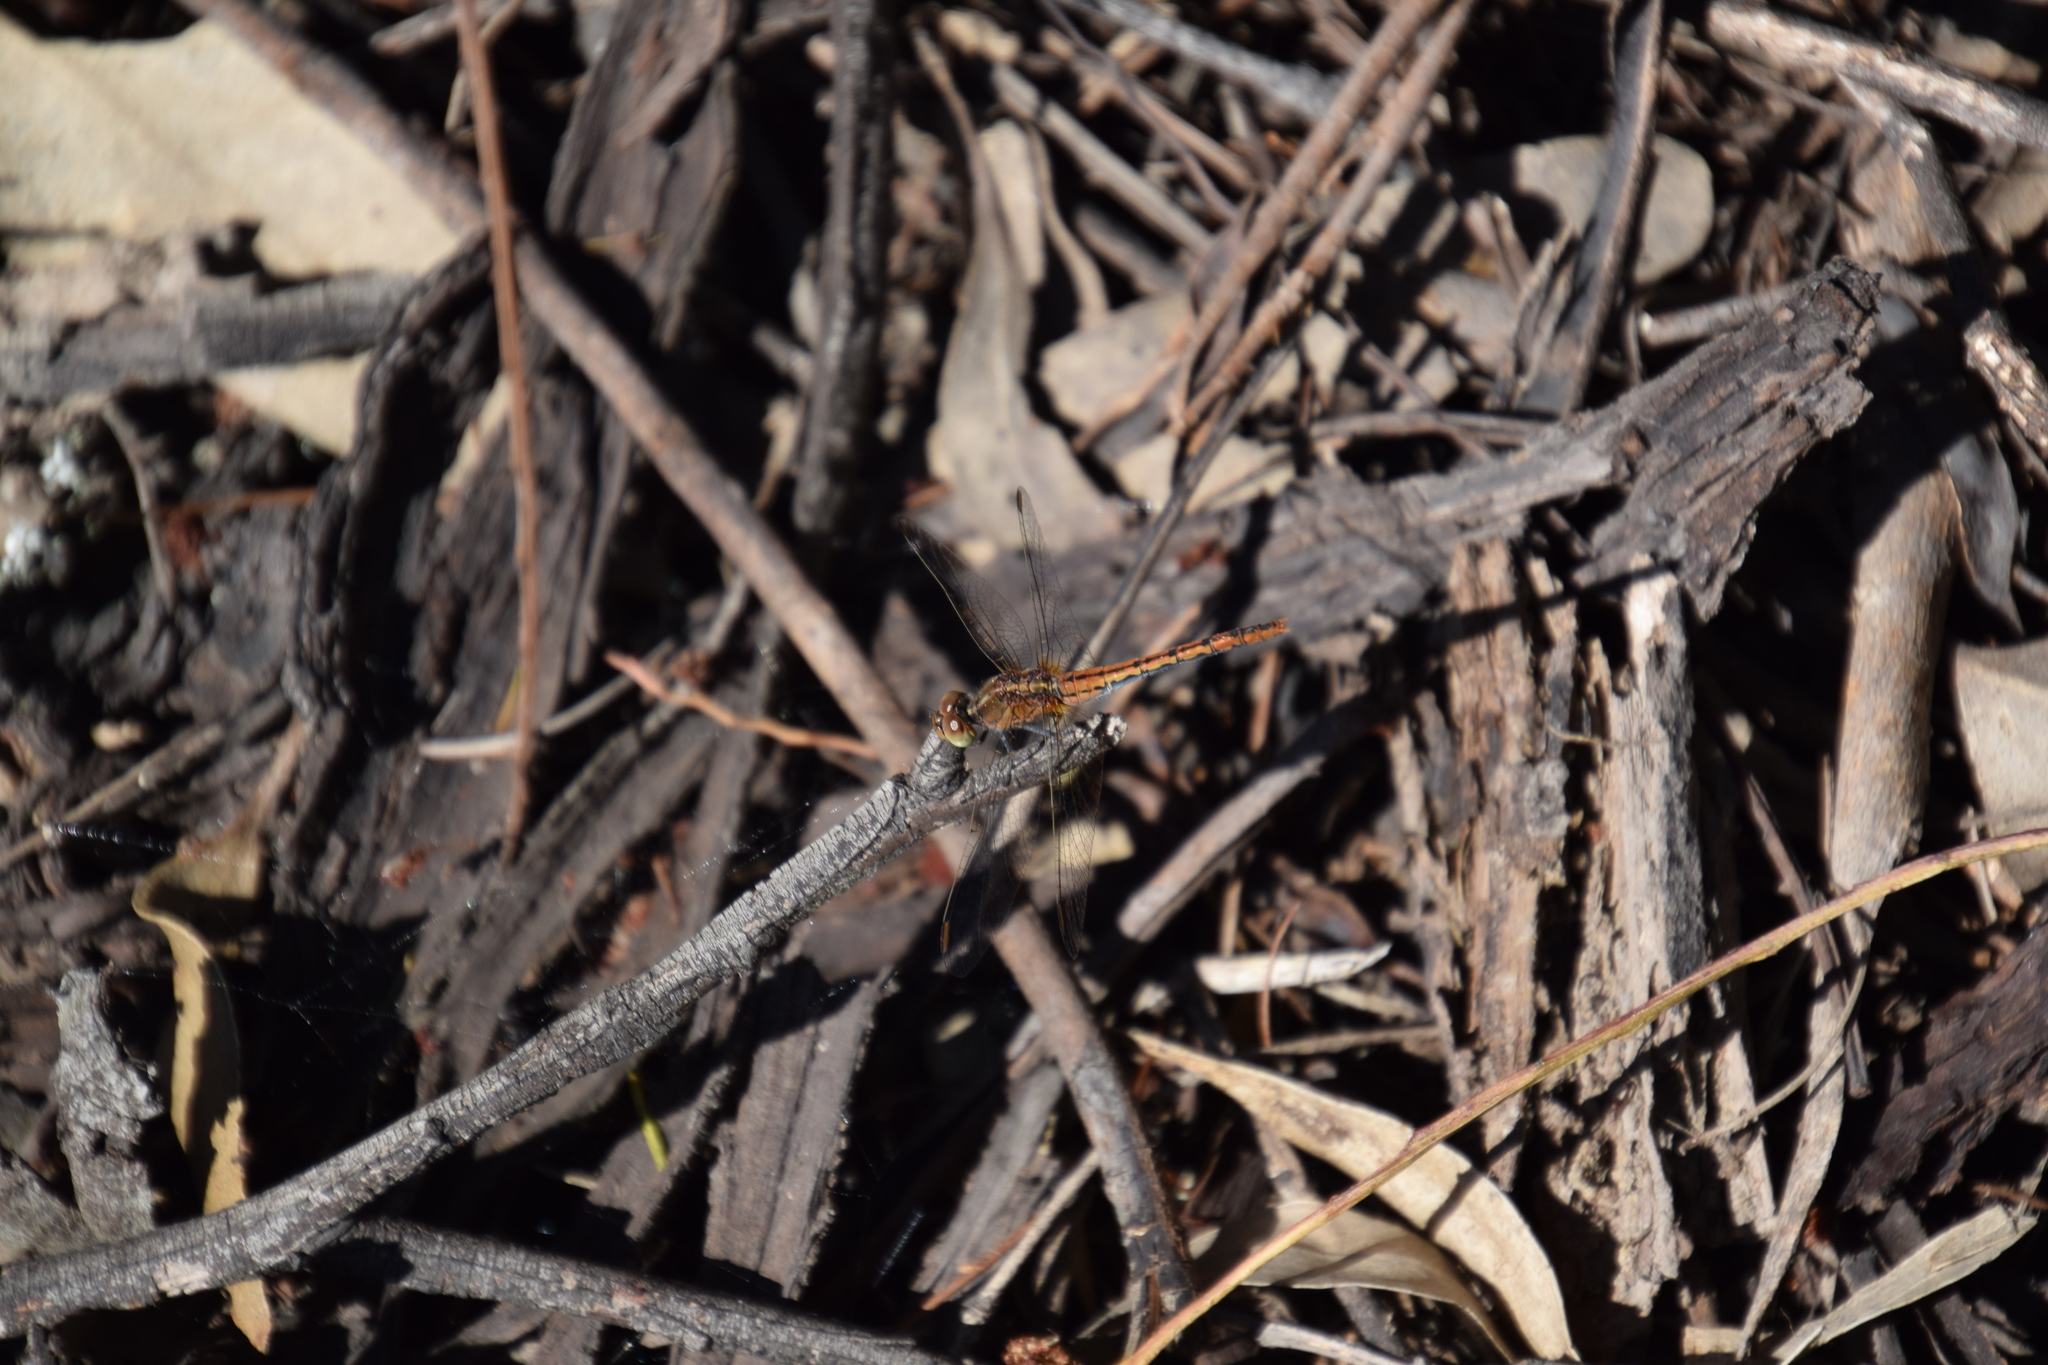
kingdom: Animalia
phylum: Arthropoda
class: Insecta
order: Odonata
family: Libellulidae
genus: Diplacodes
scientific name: Diplacodes bipunctata
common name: Red percher dragonfly
